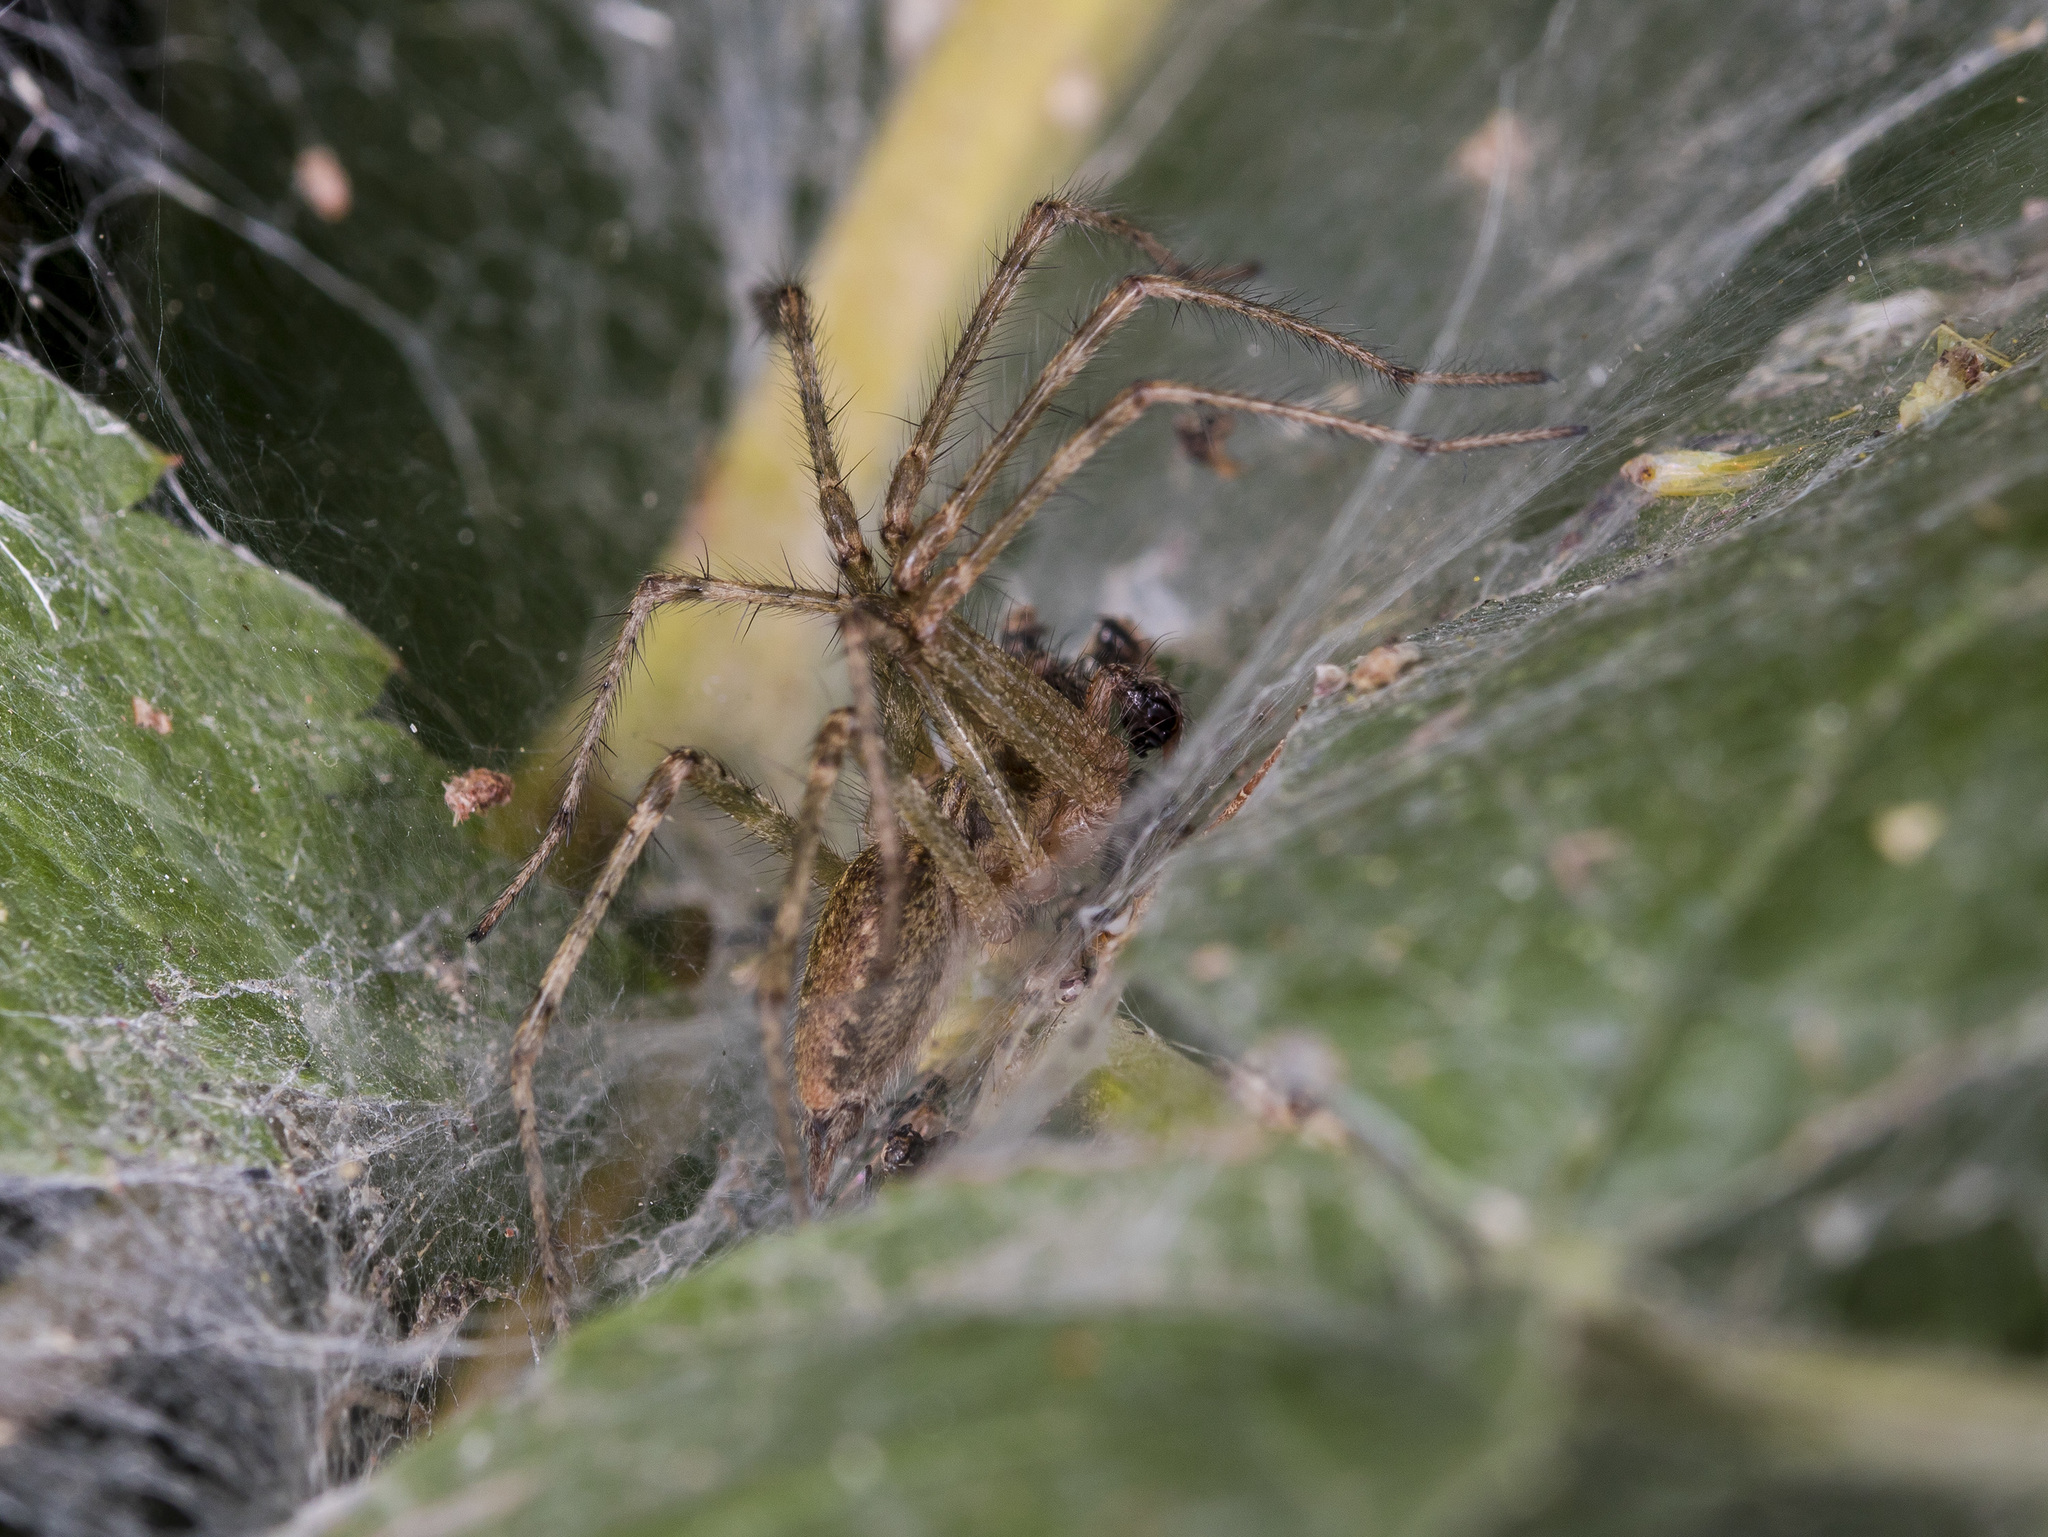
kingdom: Animalia
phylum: Arthropoda
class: Arachnida
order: Araneae
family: Agelenidae
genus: Allagelena
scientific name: Allagelena gracilens
